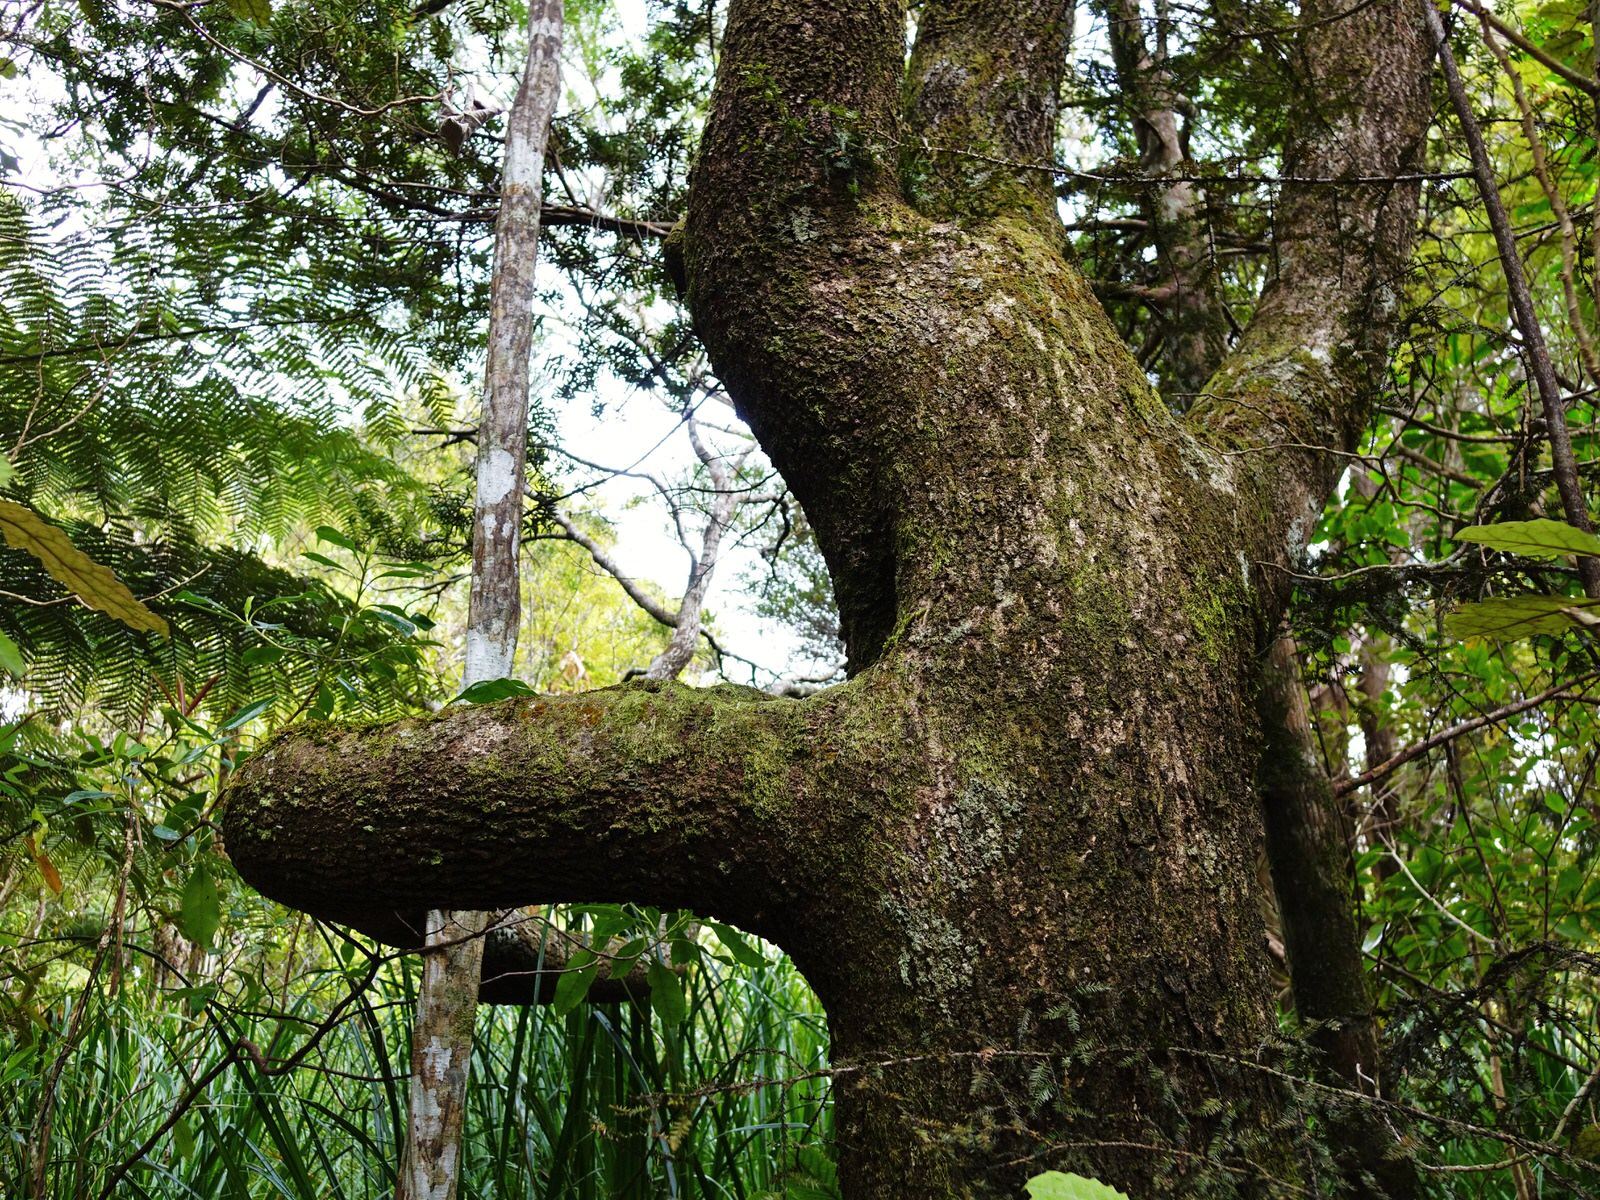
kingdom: Plantae
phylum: Tracheophyta
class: Magnoliopsida
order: Lamiales
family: Oleaceae
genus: Nestegis
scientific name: Nestegis montana
